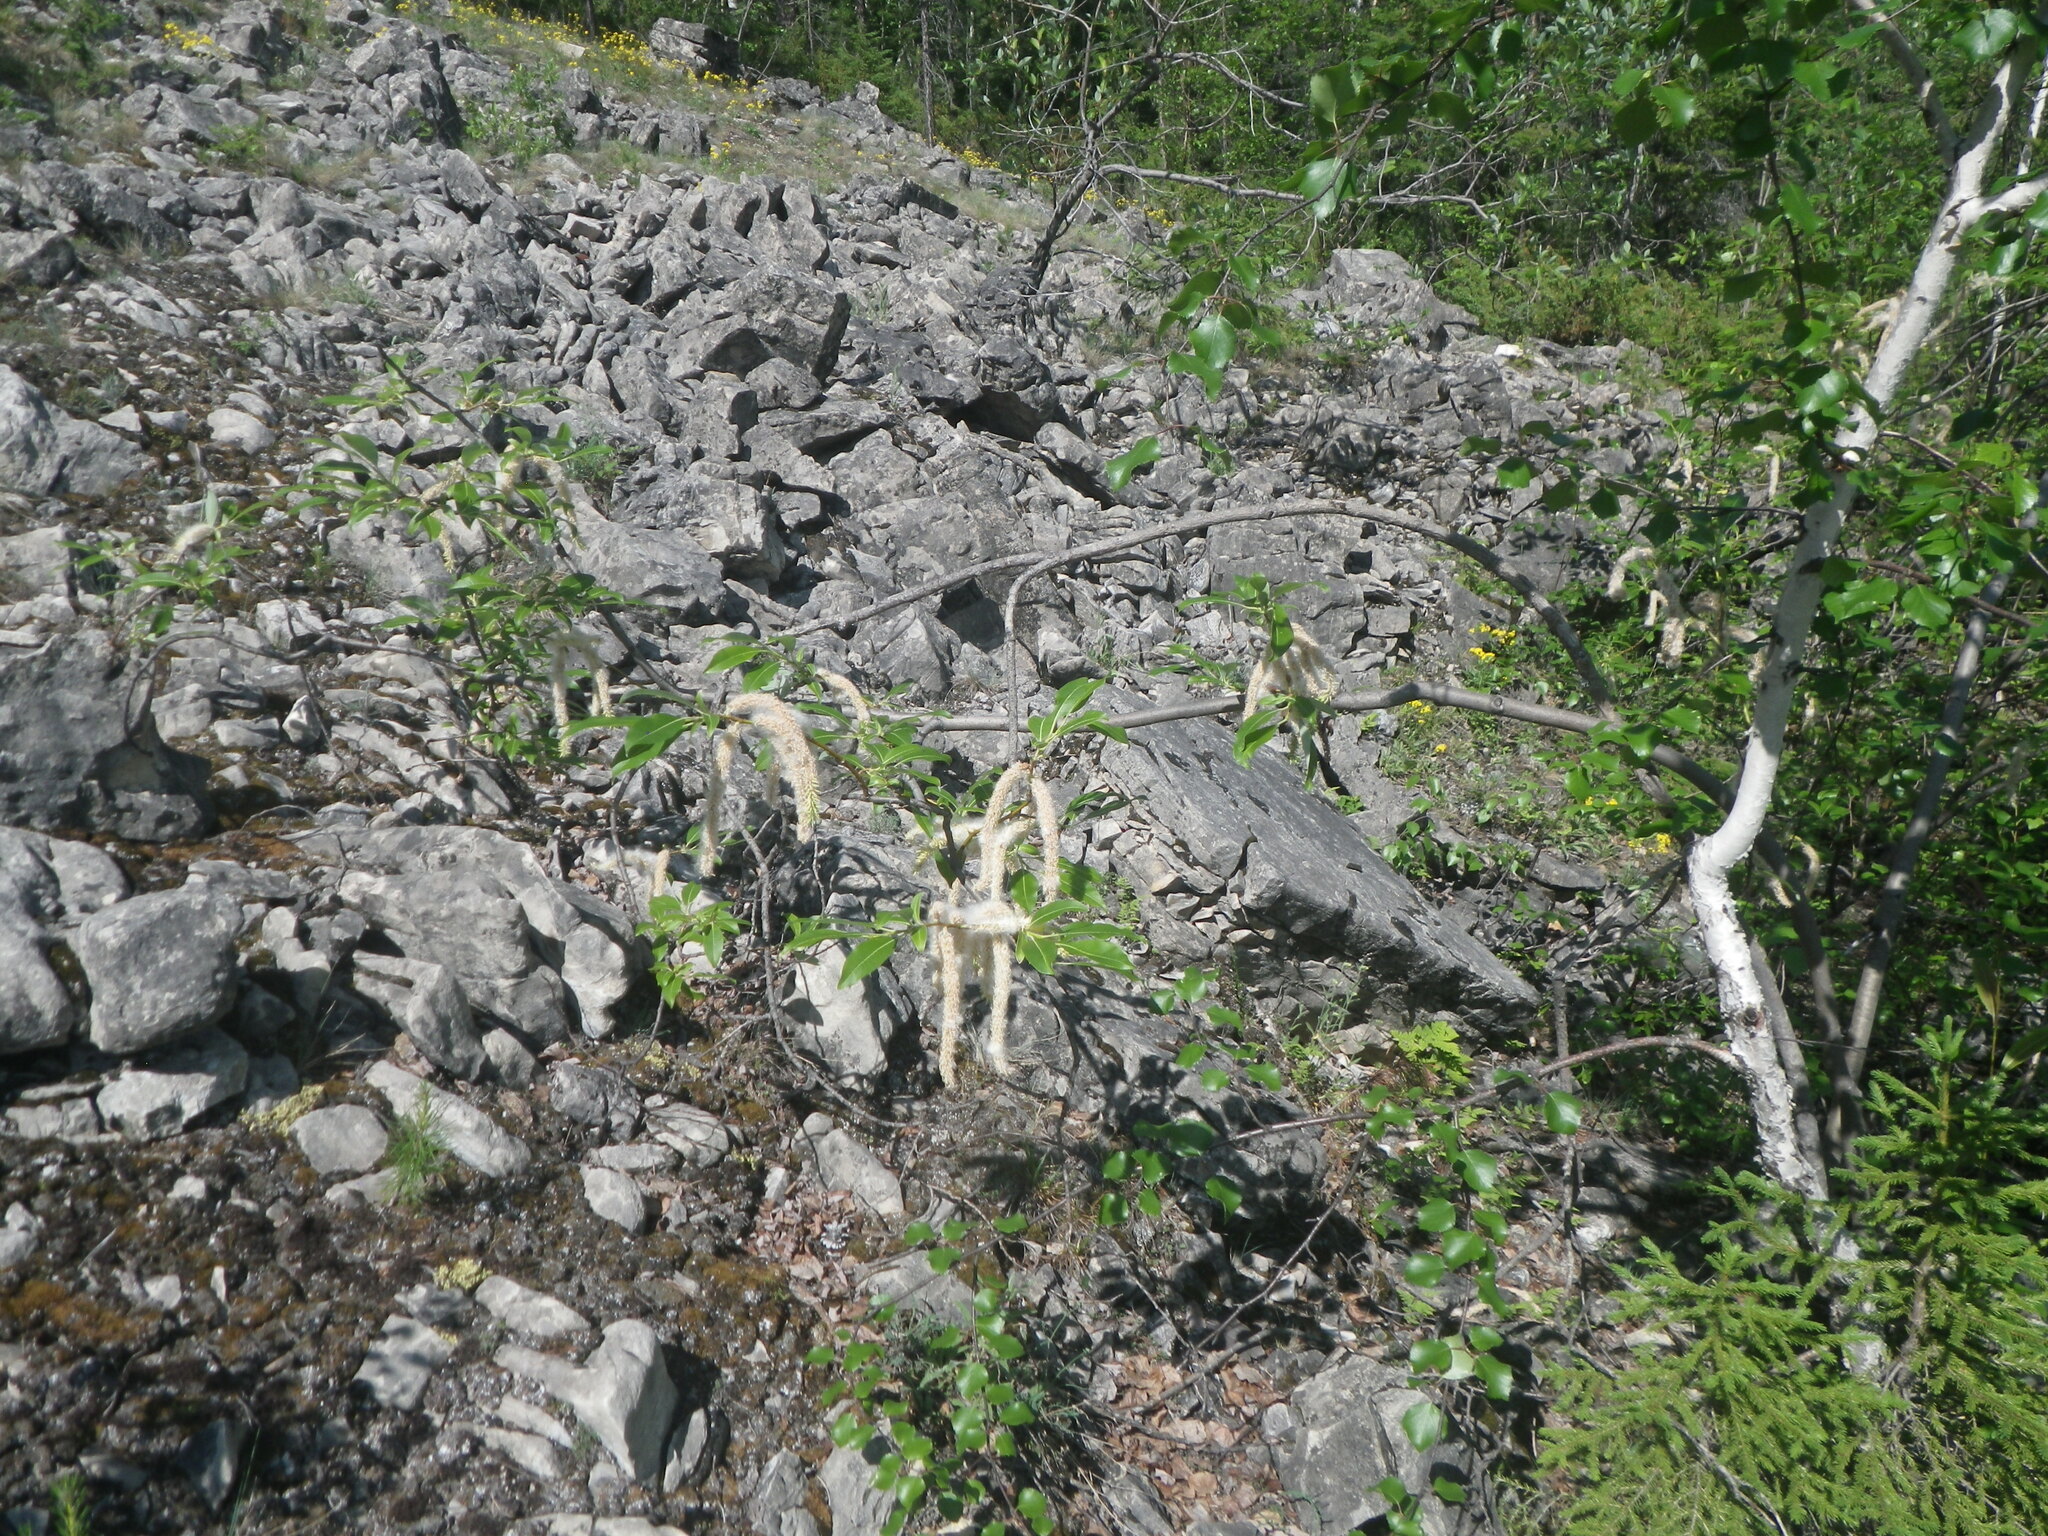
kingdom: Plantae
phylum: Tracheophyta
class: Pinopsida
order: Pinales
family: Pinaceae
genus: Picea
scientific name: Picea obovata
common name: Siberian spruce
